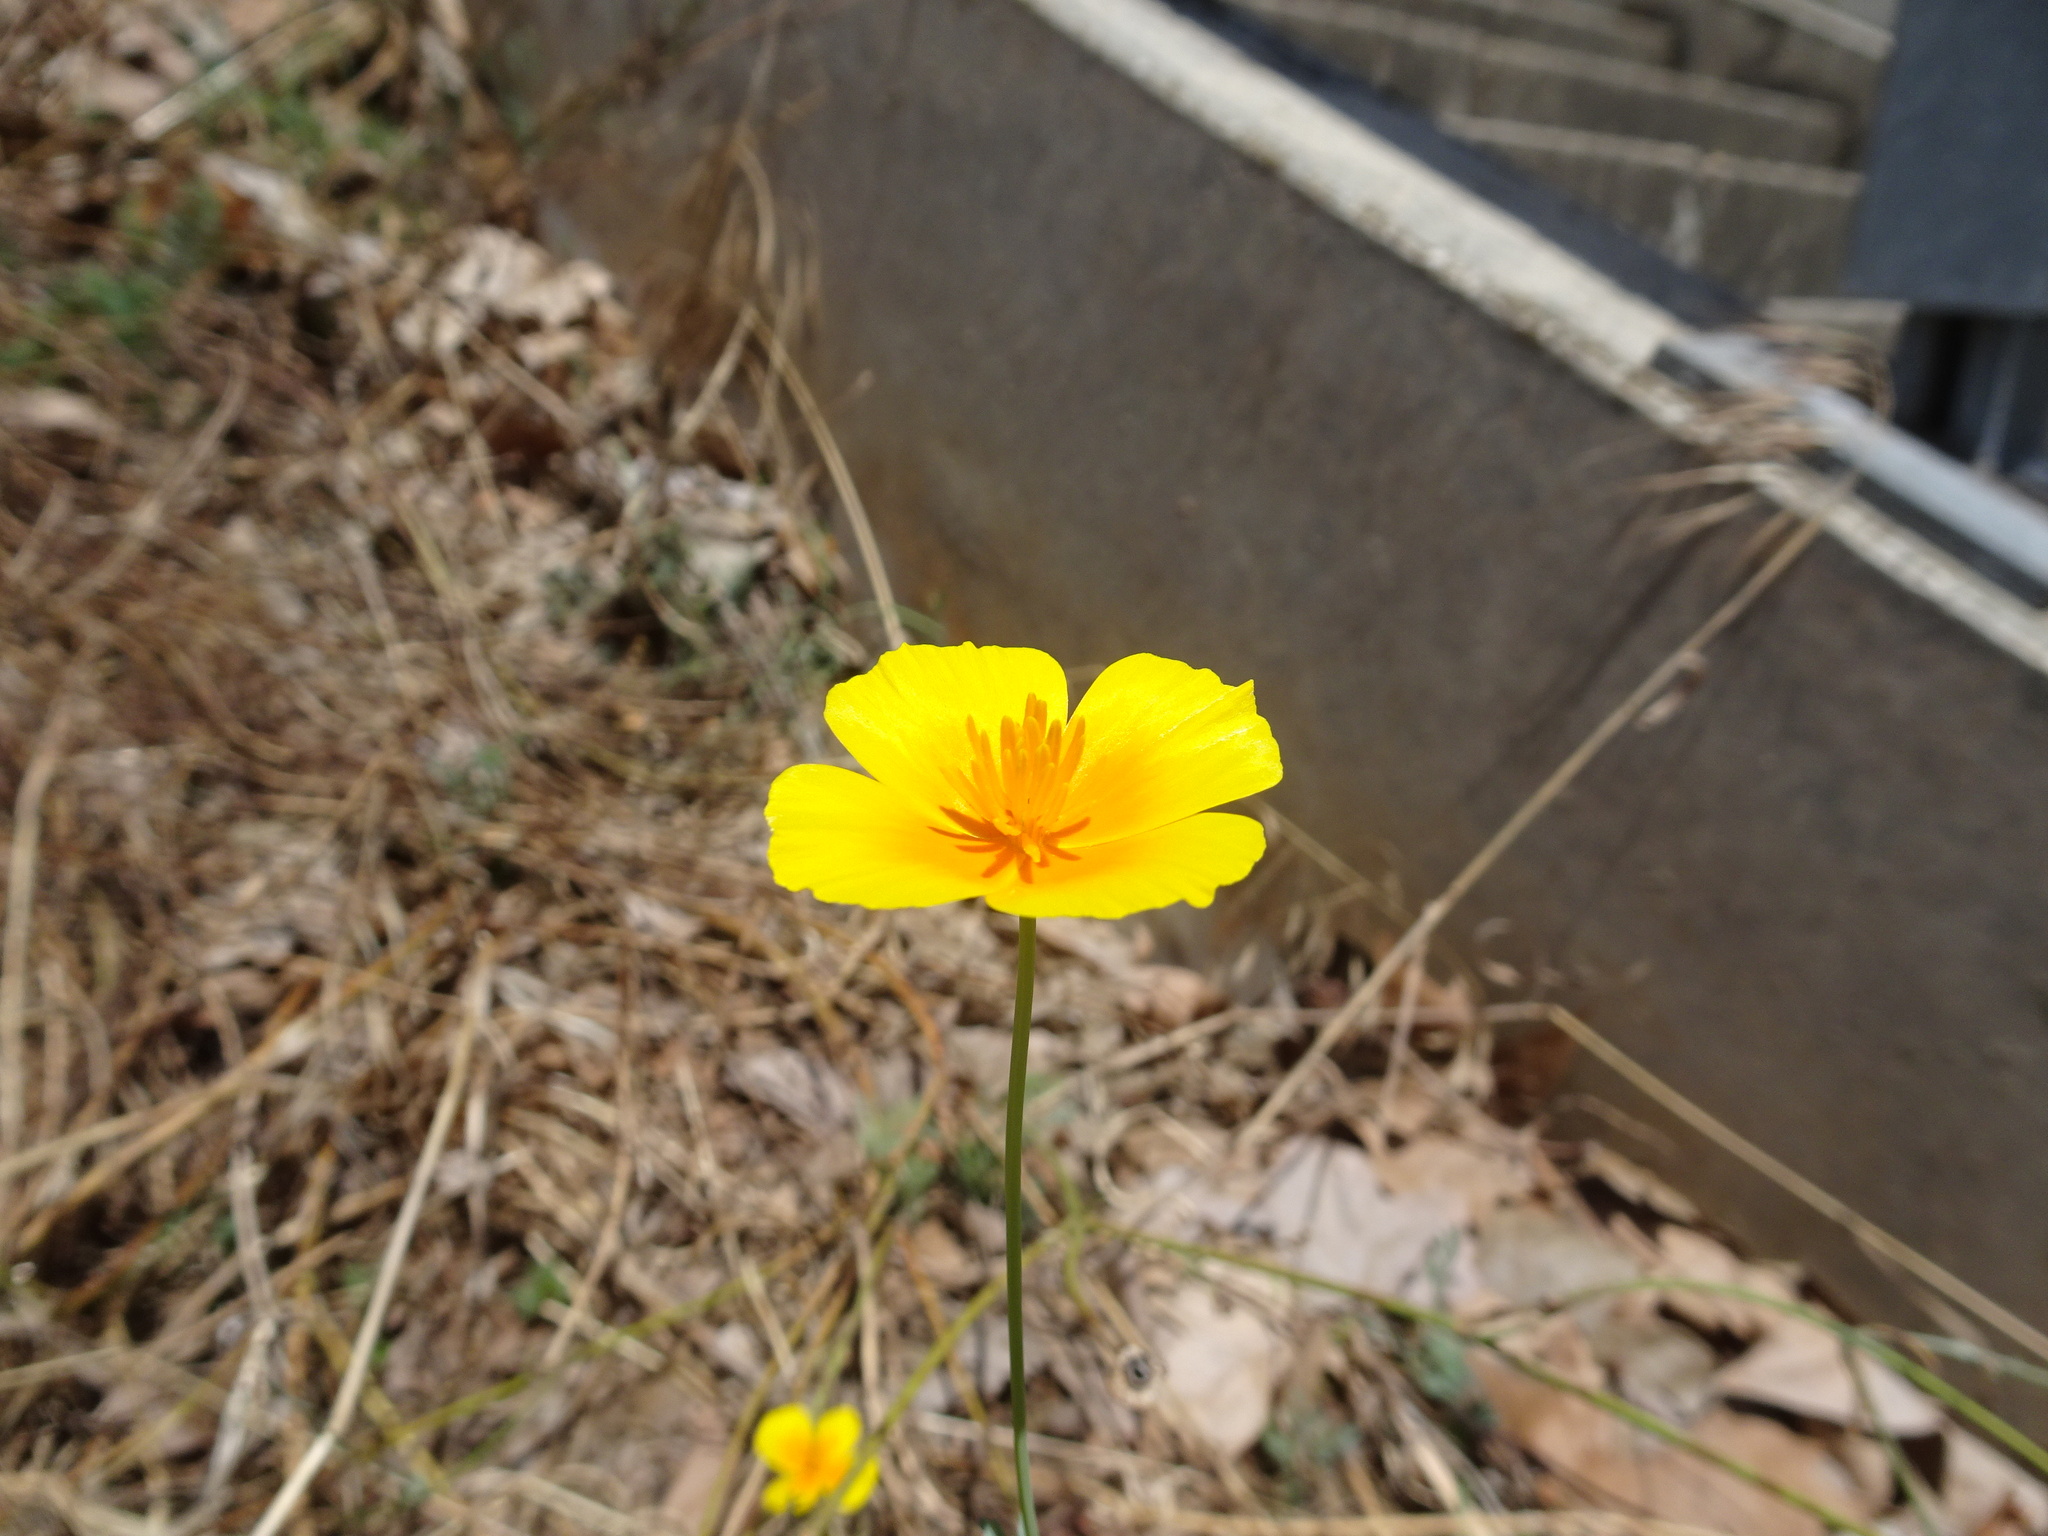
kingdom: Plantae
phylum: Tracheophyta
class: Magnoliopsida
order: Ranunculales
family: Papaveraceae
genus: Eschscholzia
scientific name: Eschscholzia californica
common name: California poppy
